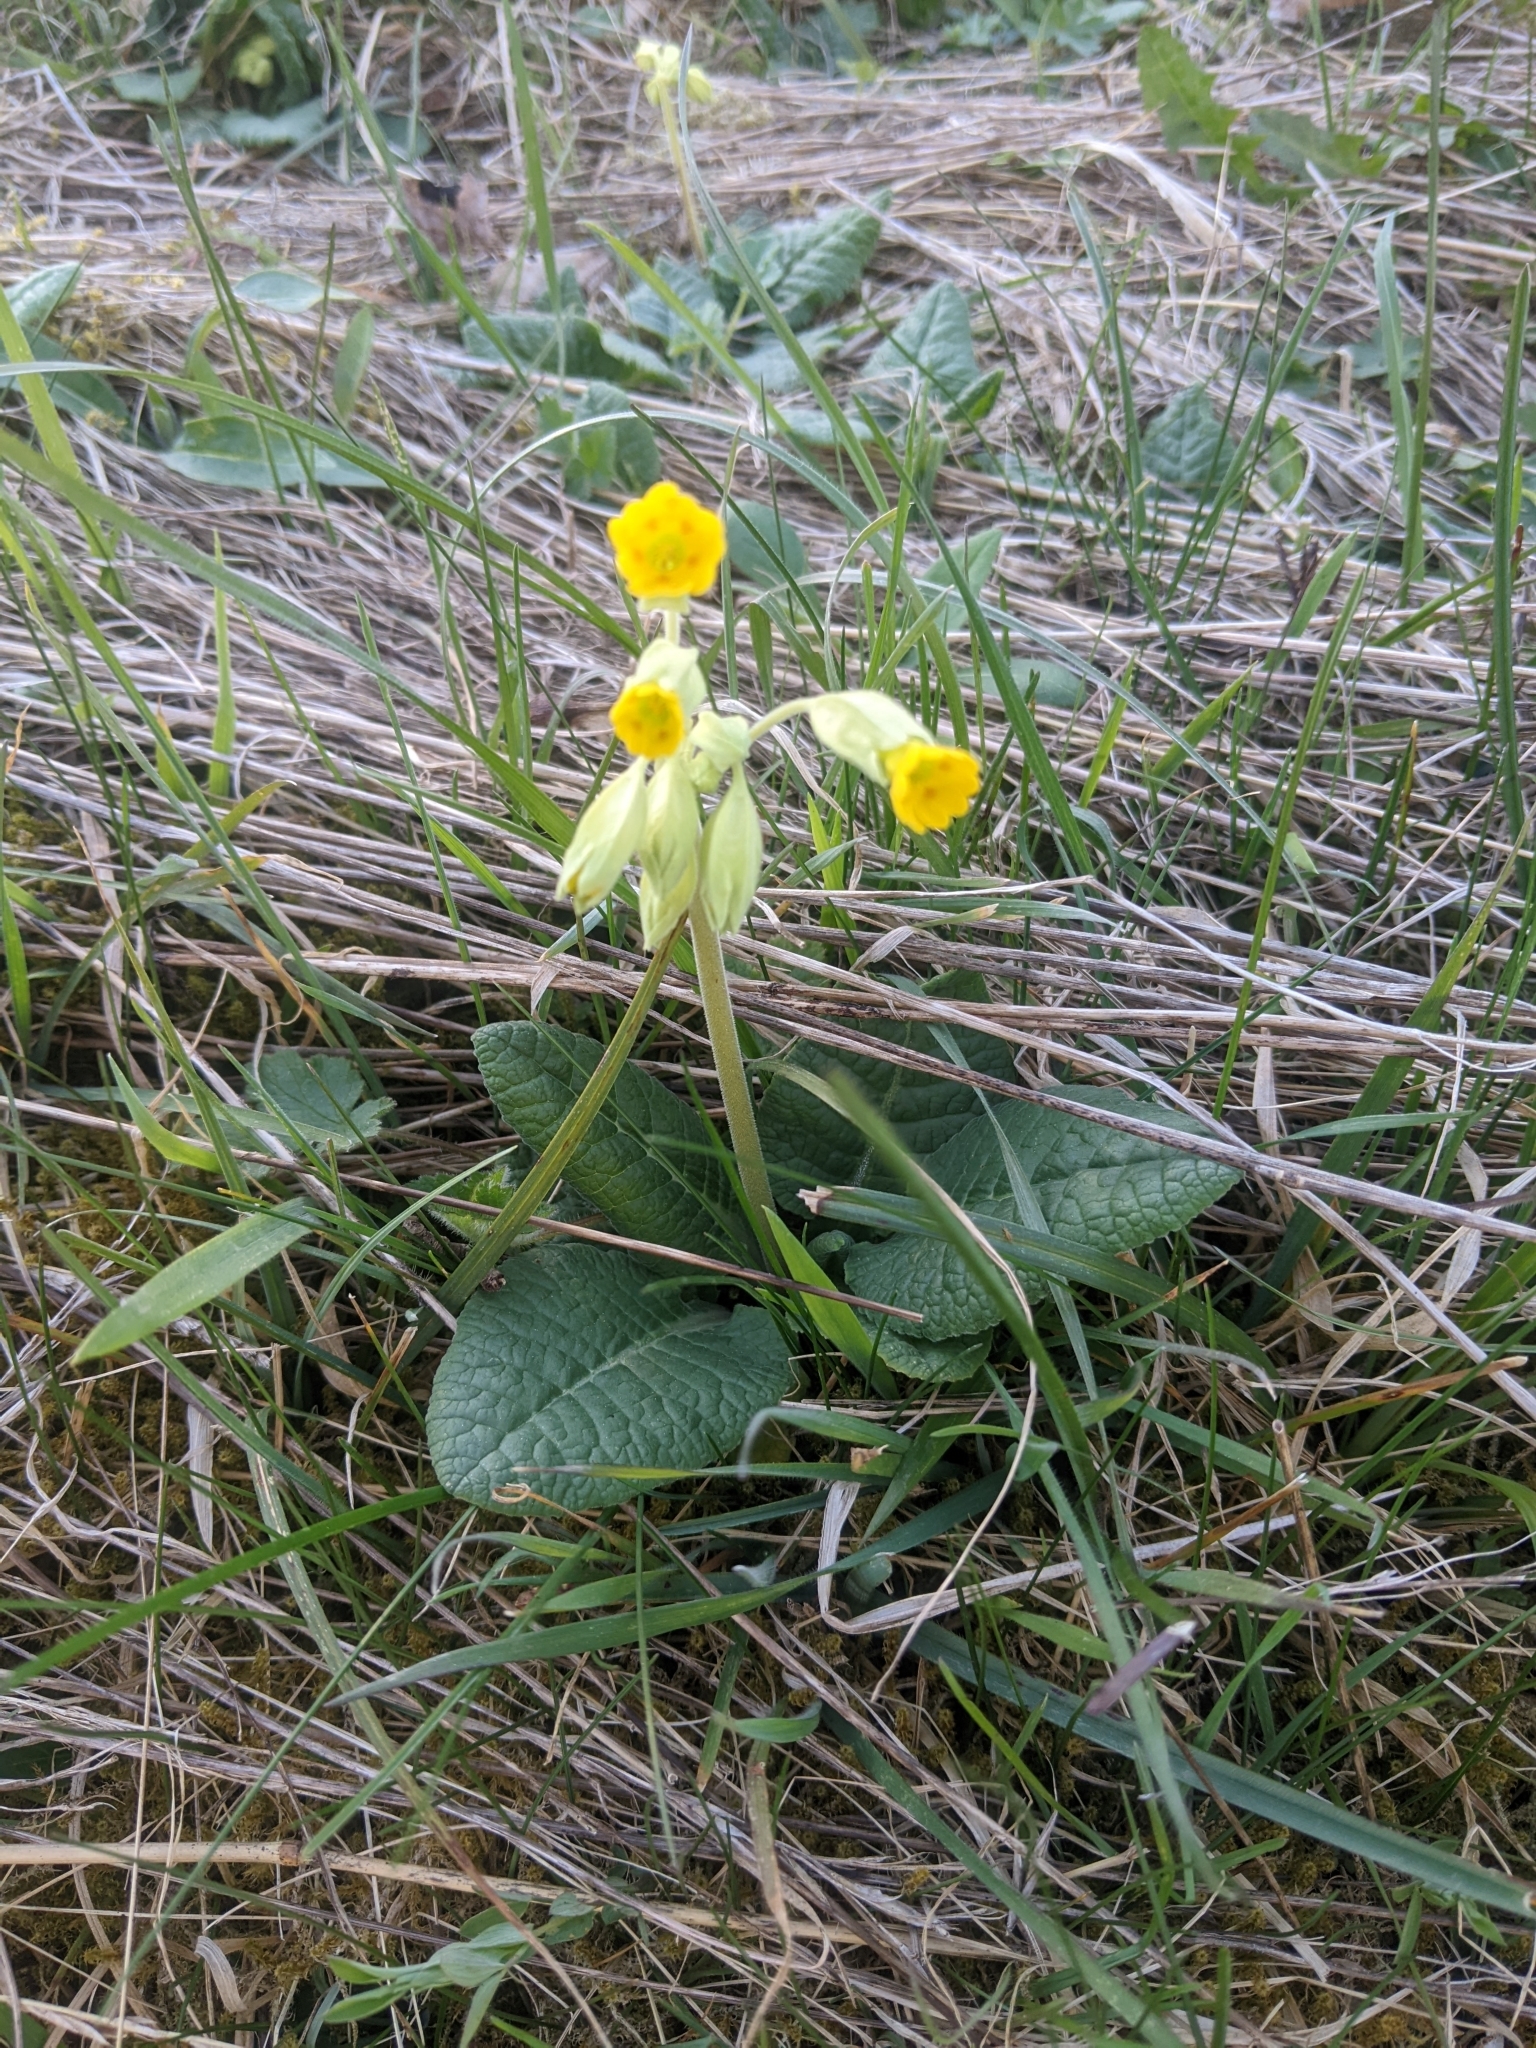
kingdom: Plantae
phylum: Tracheophyta
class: Magnoliopsida
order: Ericales
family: Primulaceae
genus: Primula
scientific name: Primula veris
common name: Cowslip
